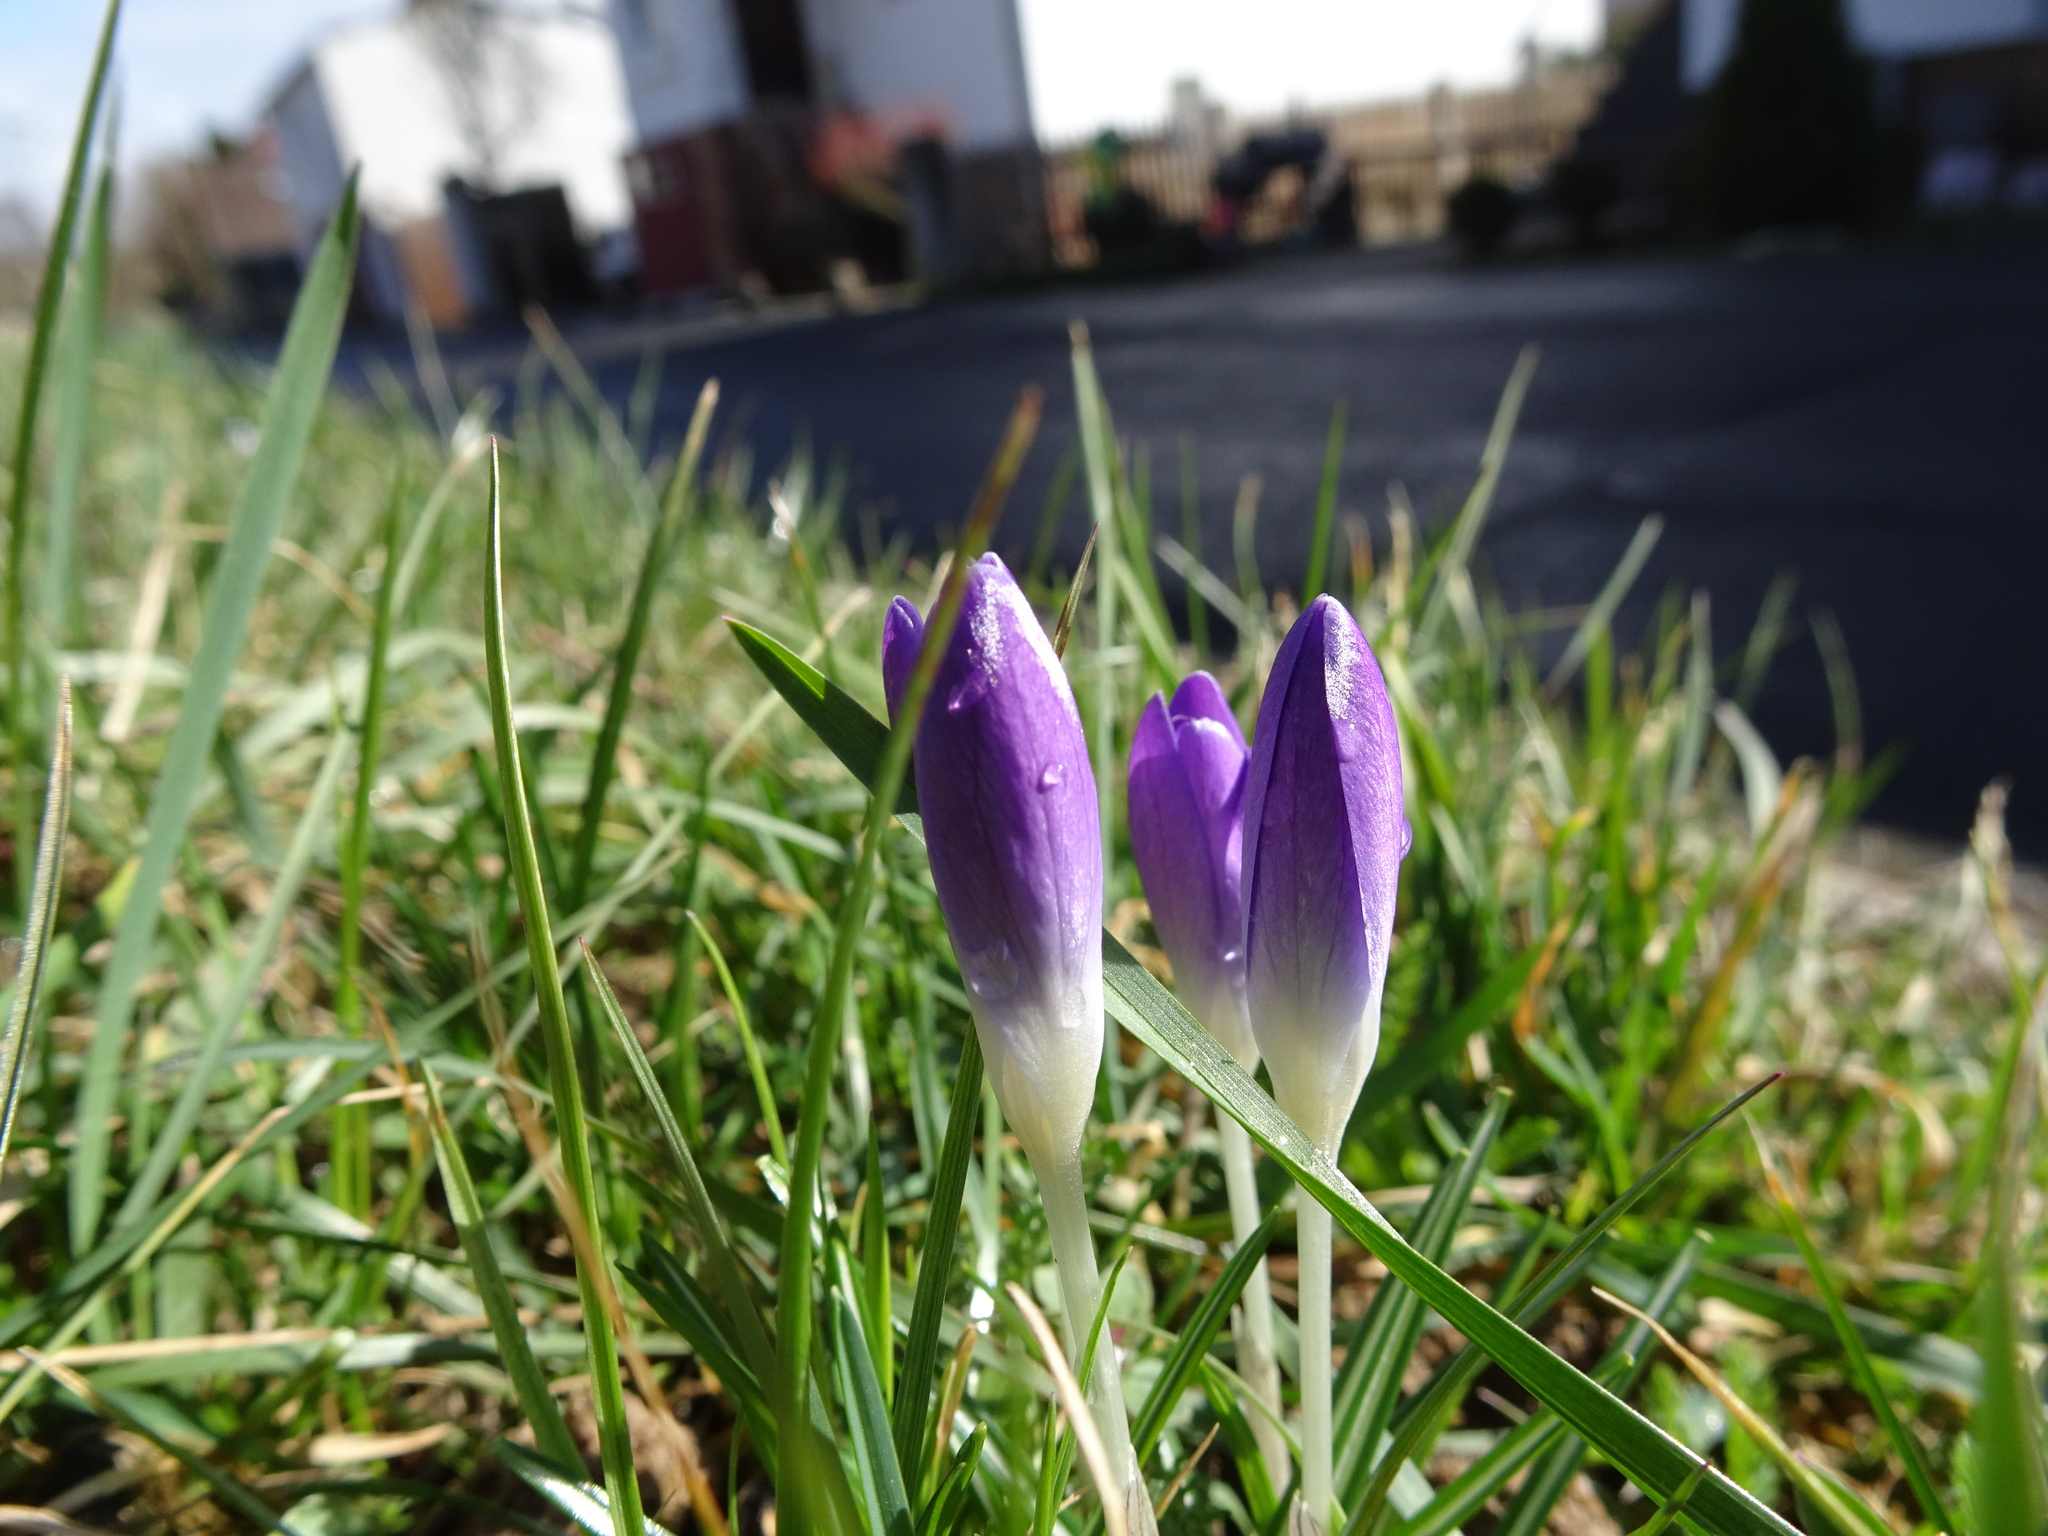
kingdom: Plantae
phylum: Tracheophyta
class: Liliopsida
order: Asparagales
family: Iridaceae
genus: Crocus
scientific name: Crocus tommasinianus
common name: Early crocus
